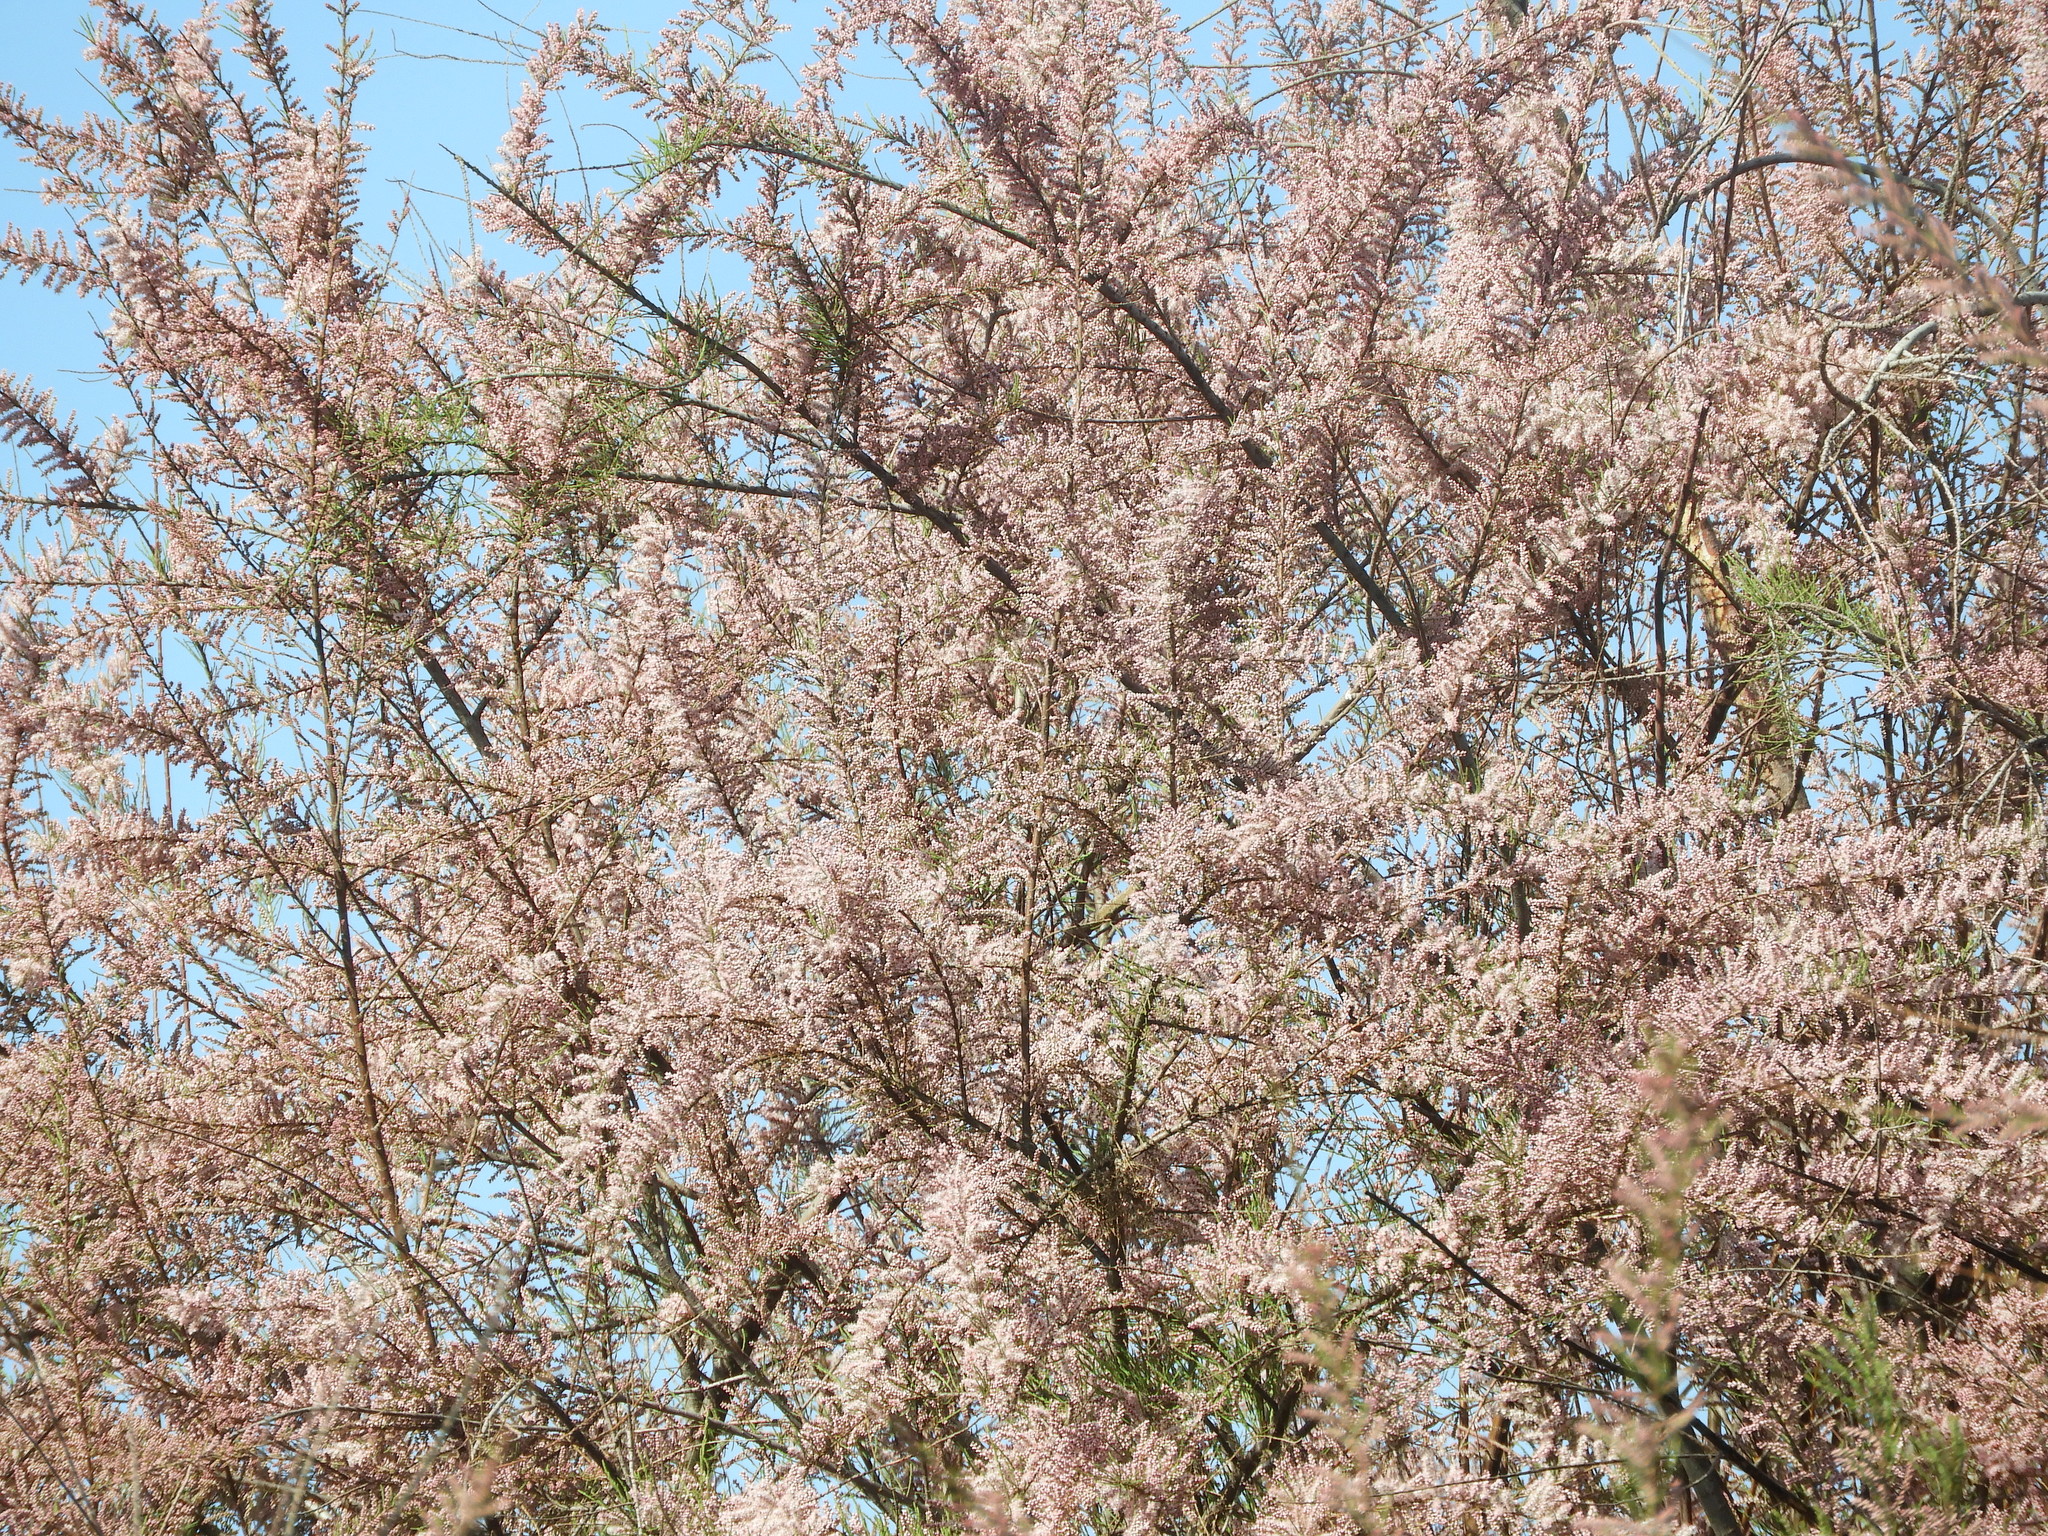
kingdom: Plantae
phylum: Tracheophyta
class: Magnoliopsida
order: Caryophyllales
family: Tamaricaceae
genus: Tamarix
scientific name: Tamarix ramosissima
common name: Pink tamarisk
